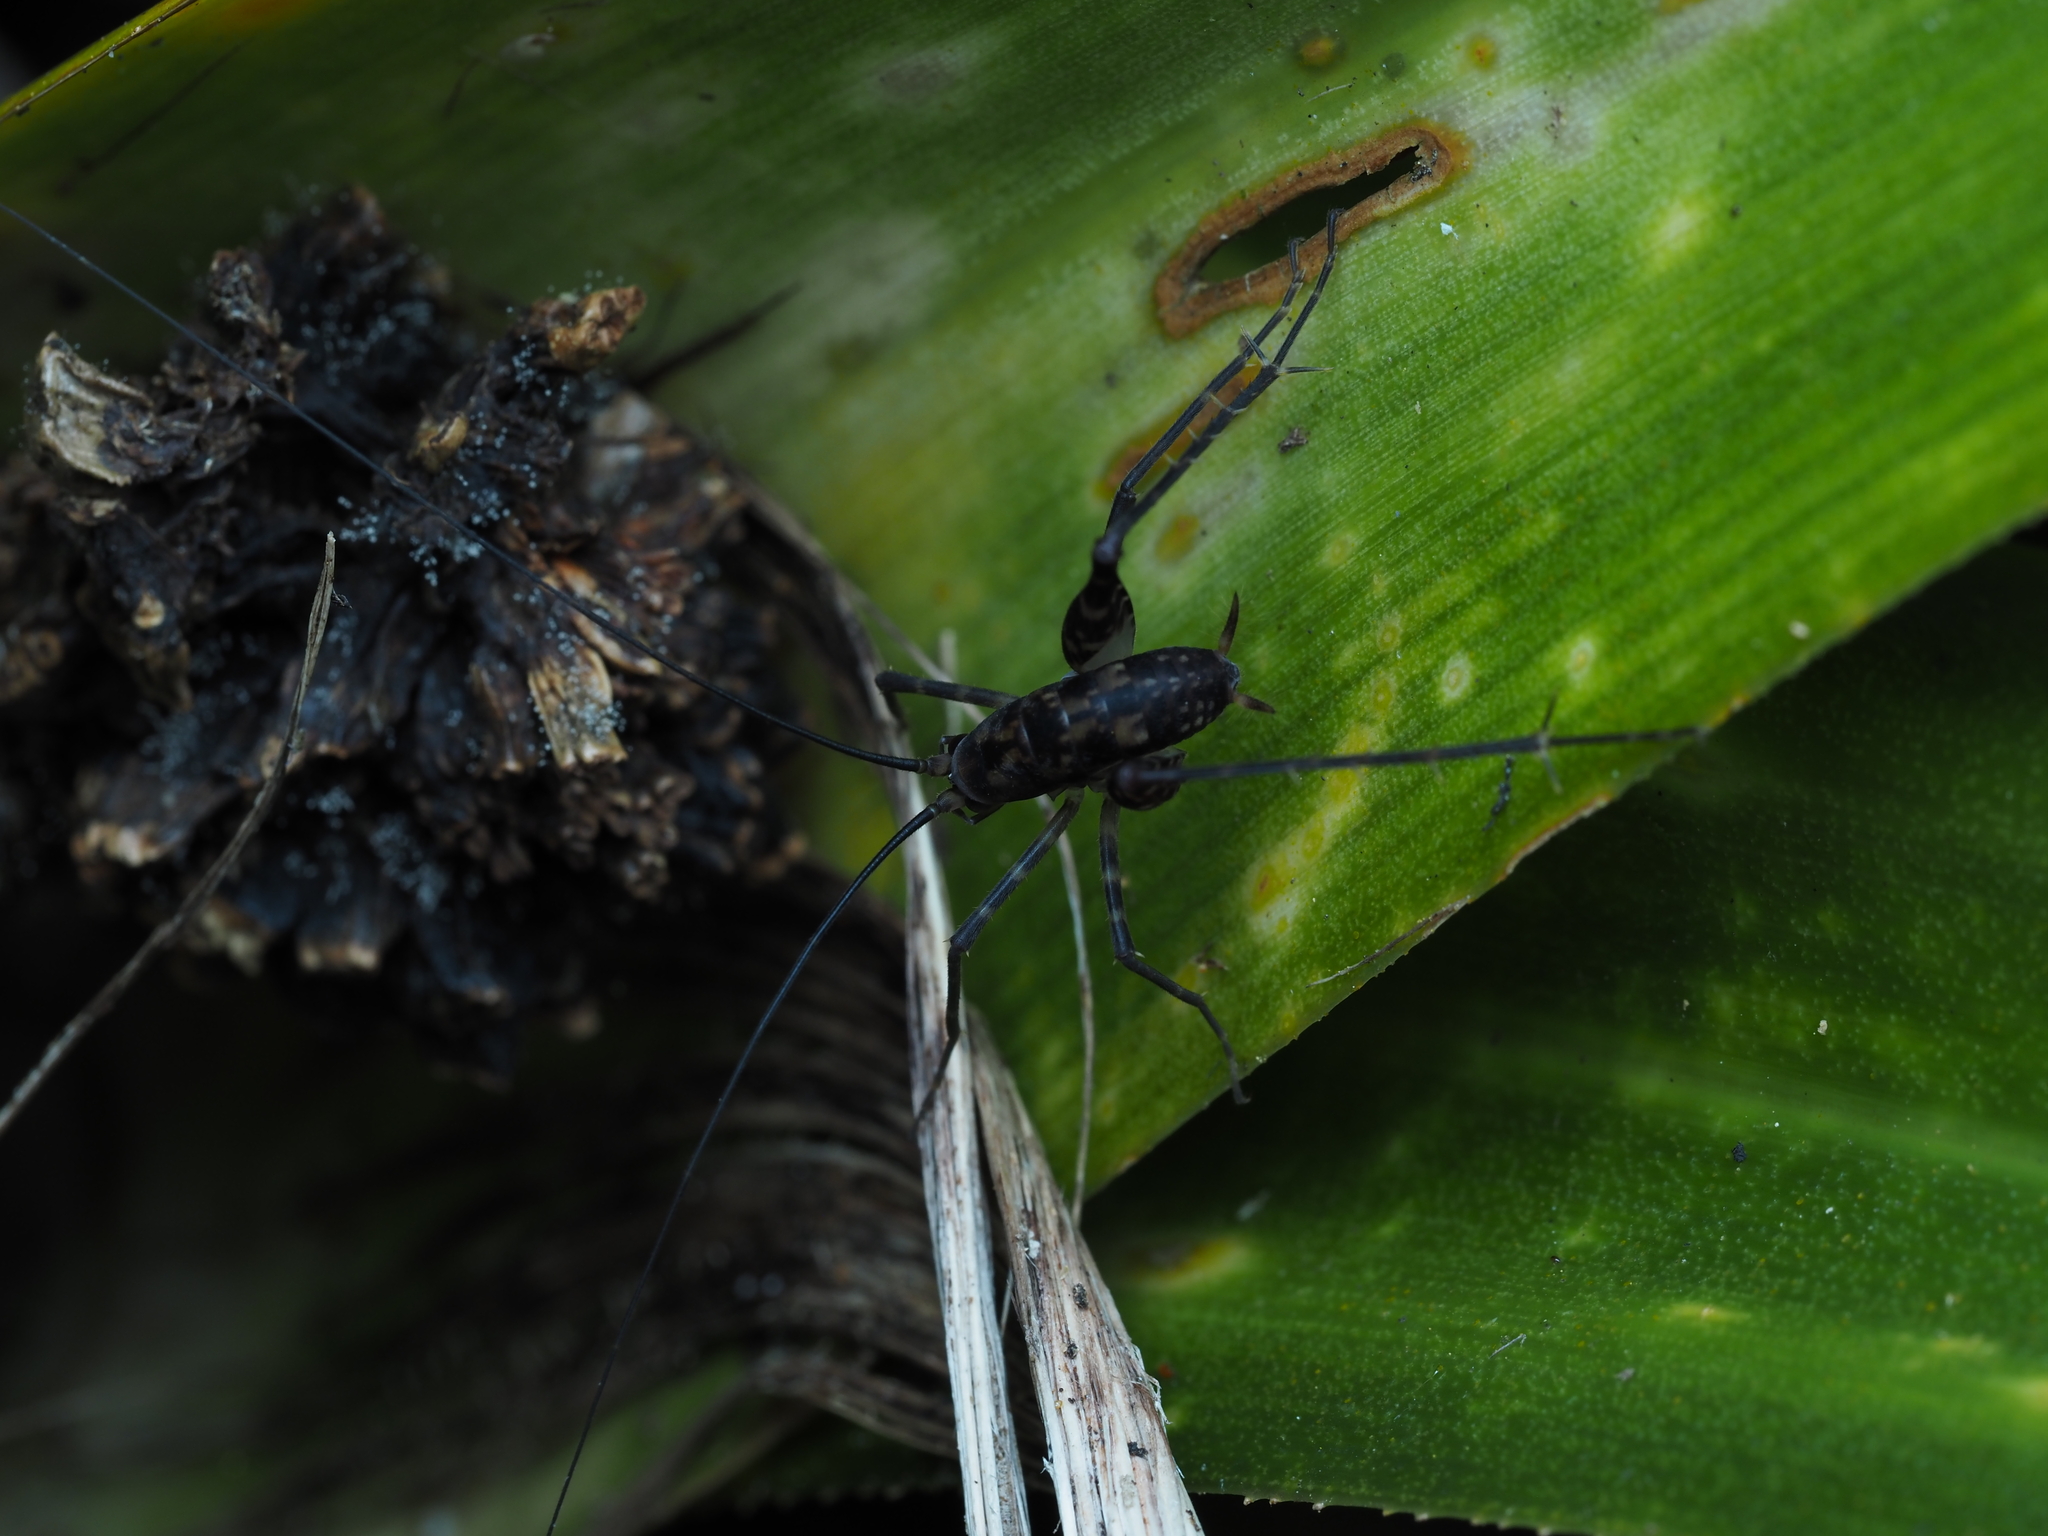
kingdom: Animalia
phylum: Arthropoda
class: Insecta
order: Orthoptera
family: Rhaphidophoridae
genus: Miotopus
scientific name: Miotopus richardsae
